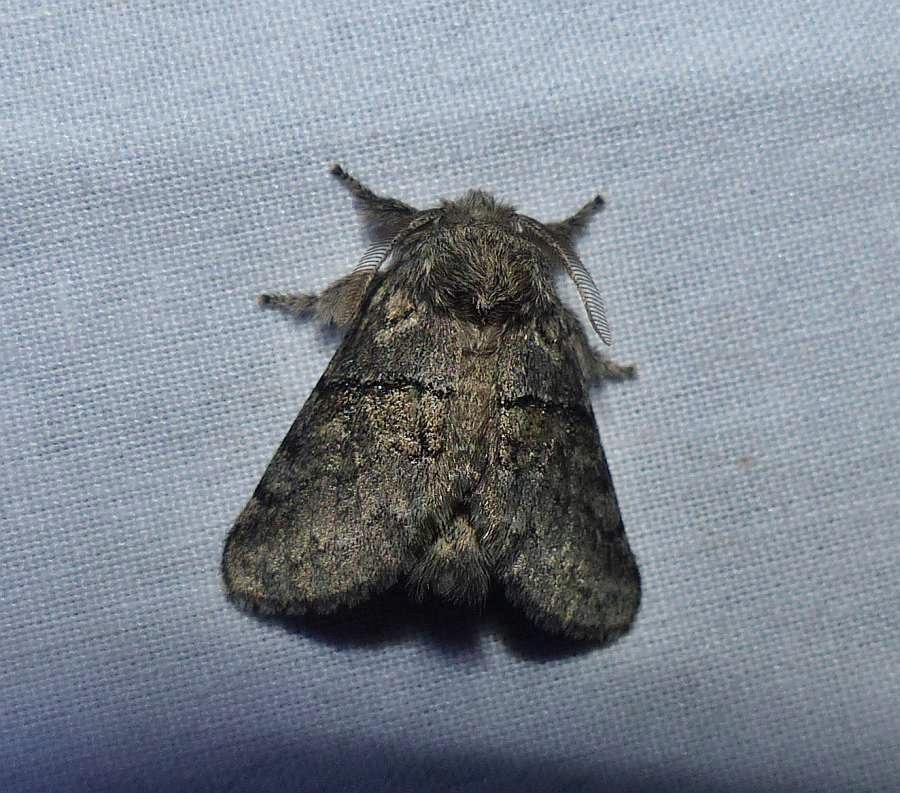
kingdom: Animalia
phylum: Arthropoda
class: Insecta
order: Lepidoptera
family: Notodontidae
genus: Gluphisia
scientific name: Gluphisia septentrionis
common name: Common gluphisia
